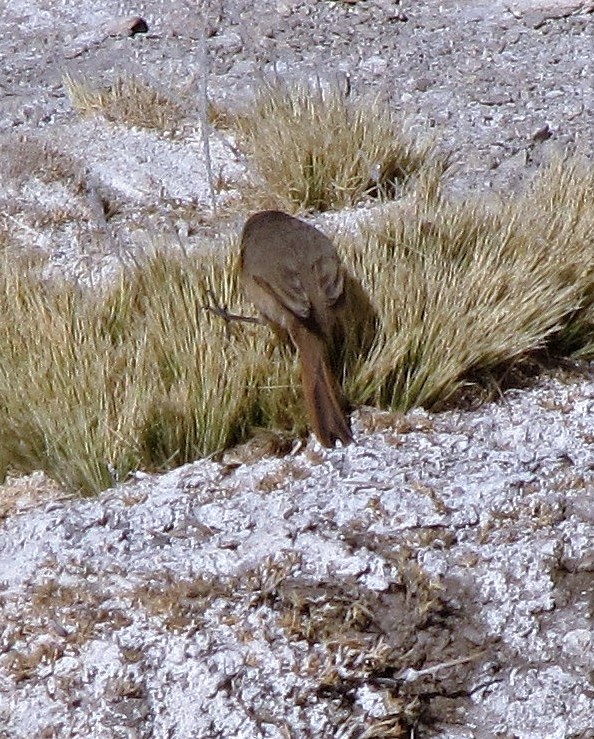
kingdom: Animalia
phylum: Chordata
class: Aves
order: Passeriformes
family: Furnariidae
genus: Asthenes
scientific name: Asthenes modesta
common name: Cordilleran canastero
